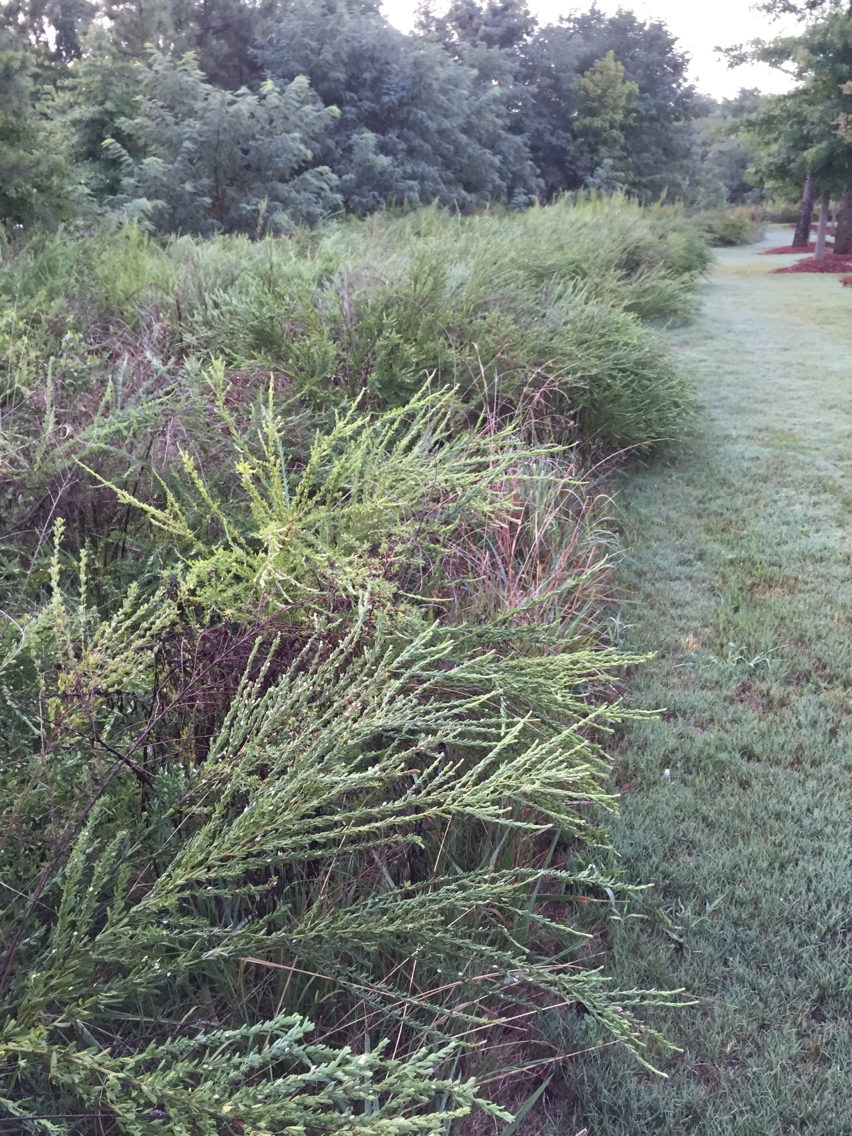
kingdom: Plantae
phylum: Tracheophyta
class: Magnoliopsida
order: Fabales
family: Fabaceae
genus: Lespedeza
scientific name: Lespedeza cuneata
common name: Chinese bush-clover
